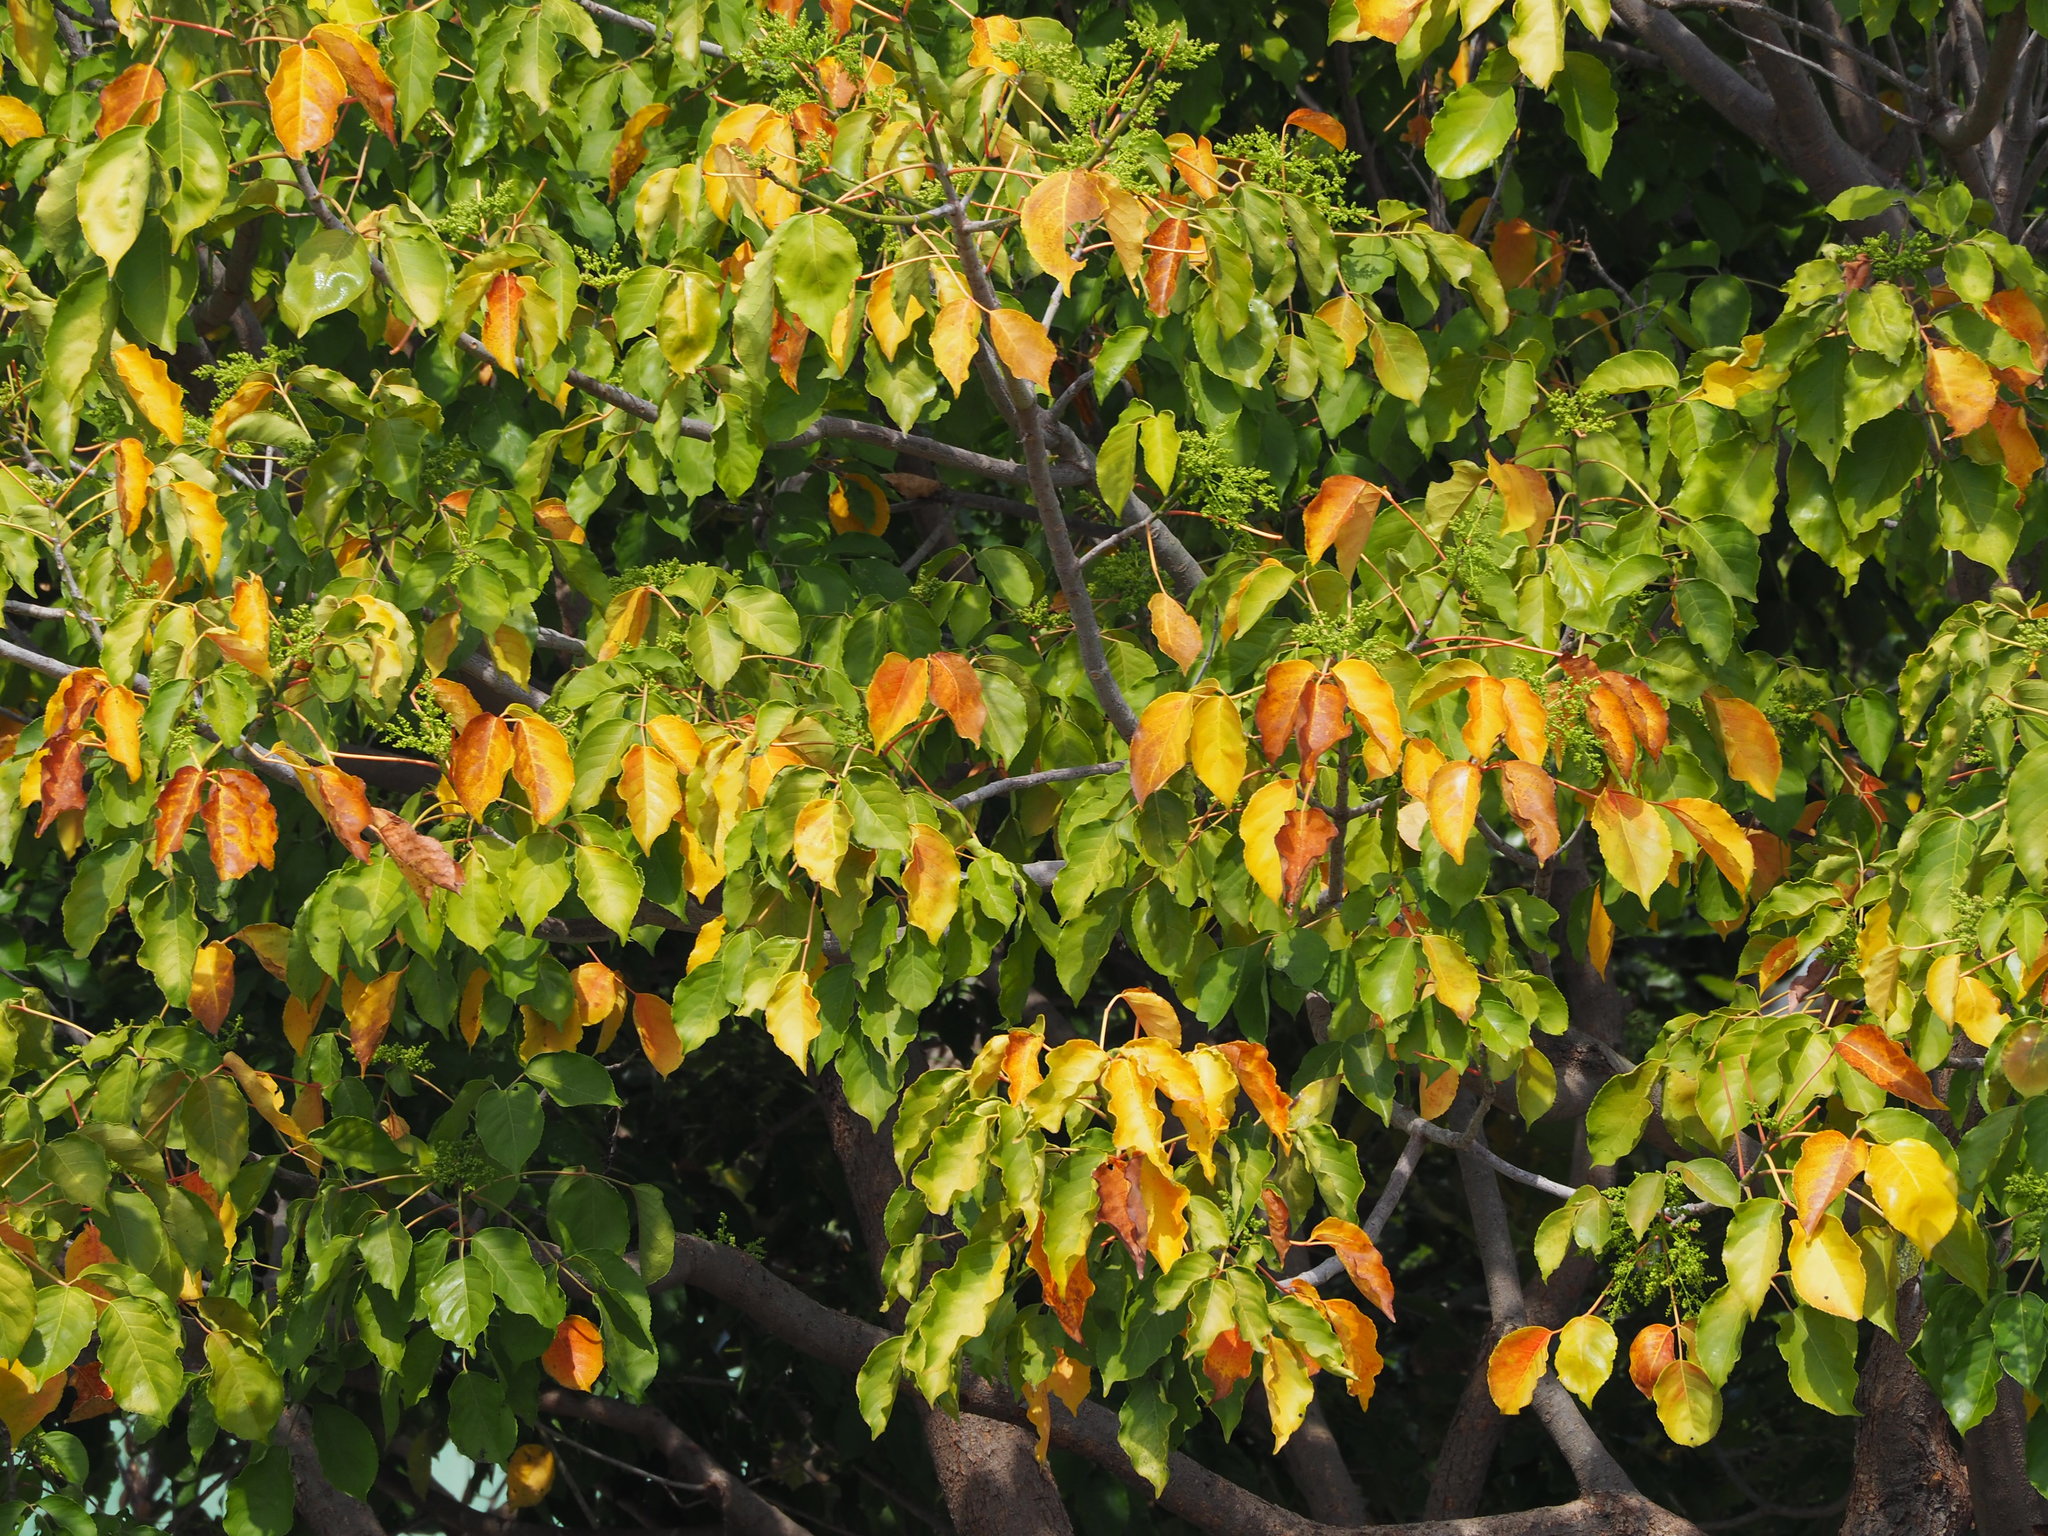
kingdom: Plantae
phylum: Tracheophyta
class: Magnoliopsida
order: Malpighiales
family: Phyllanthaceae
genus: Bischofia
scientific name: Bischofia javanica
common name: Javanese bishopwood
